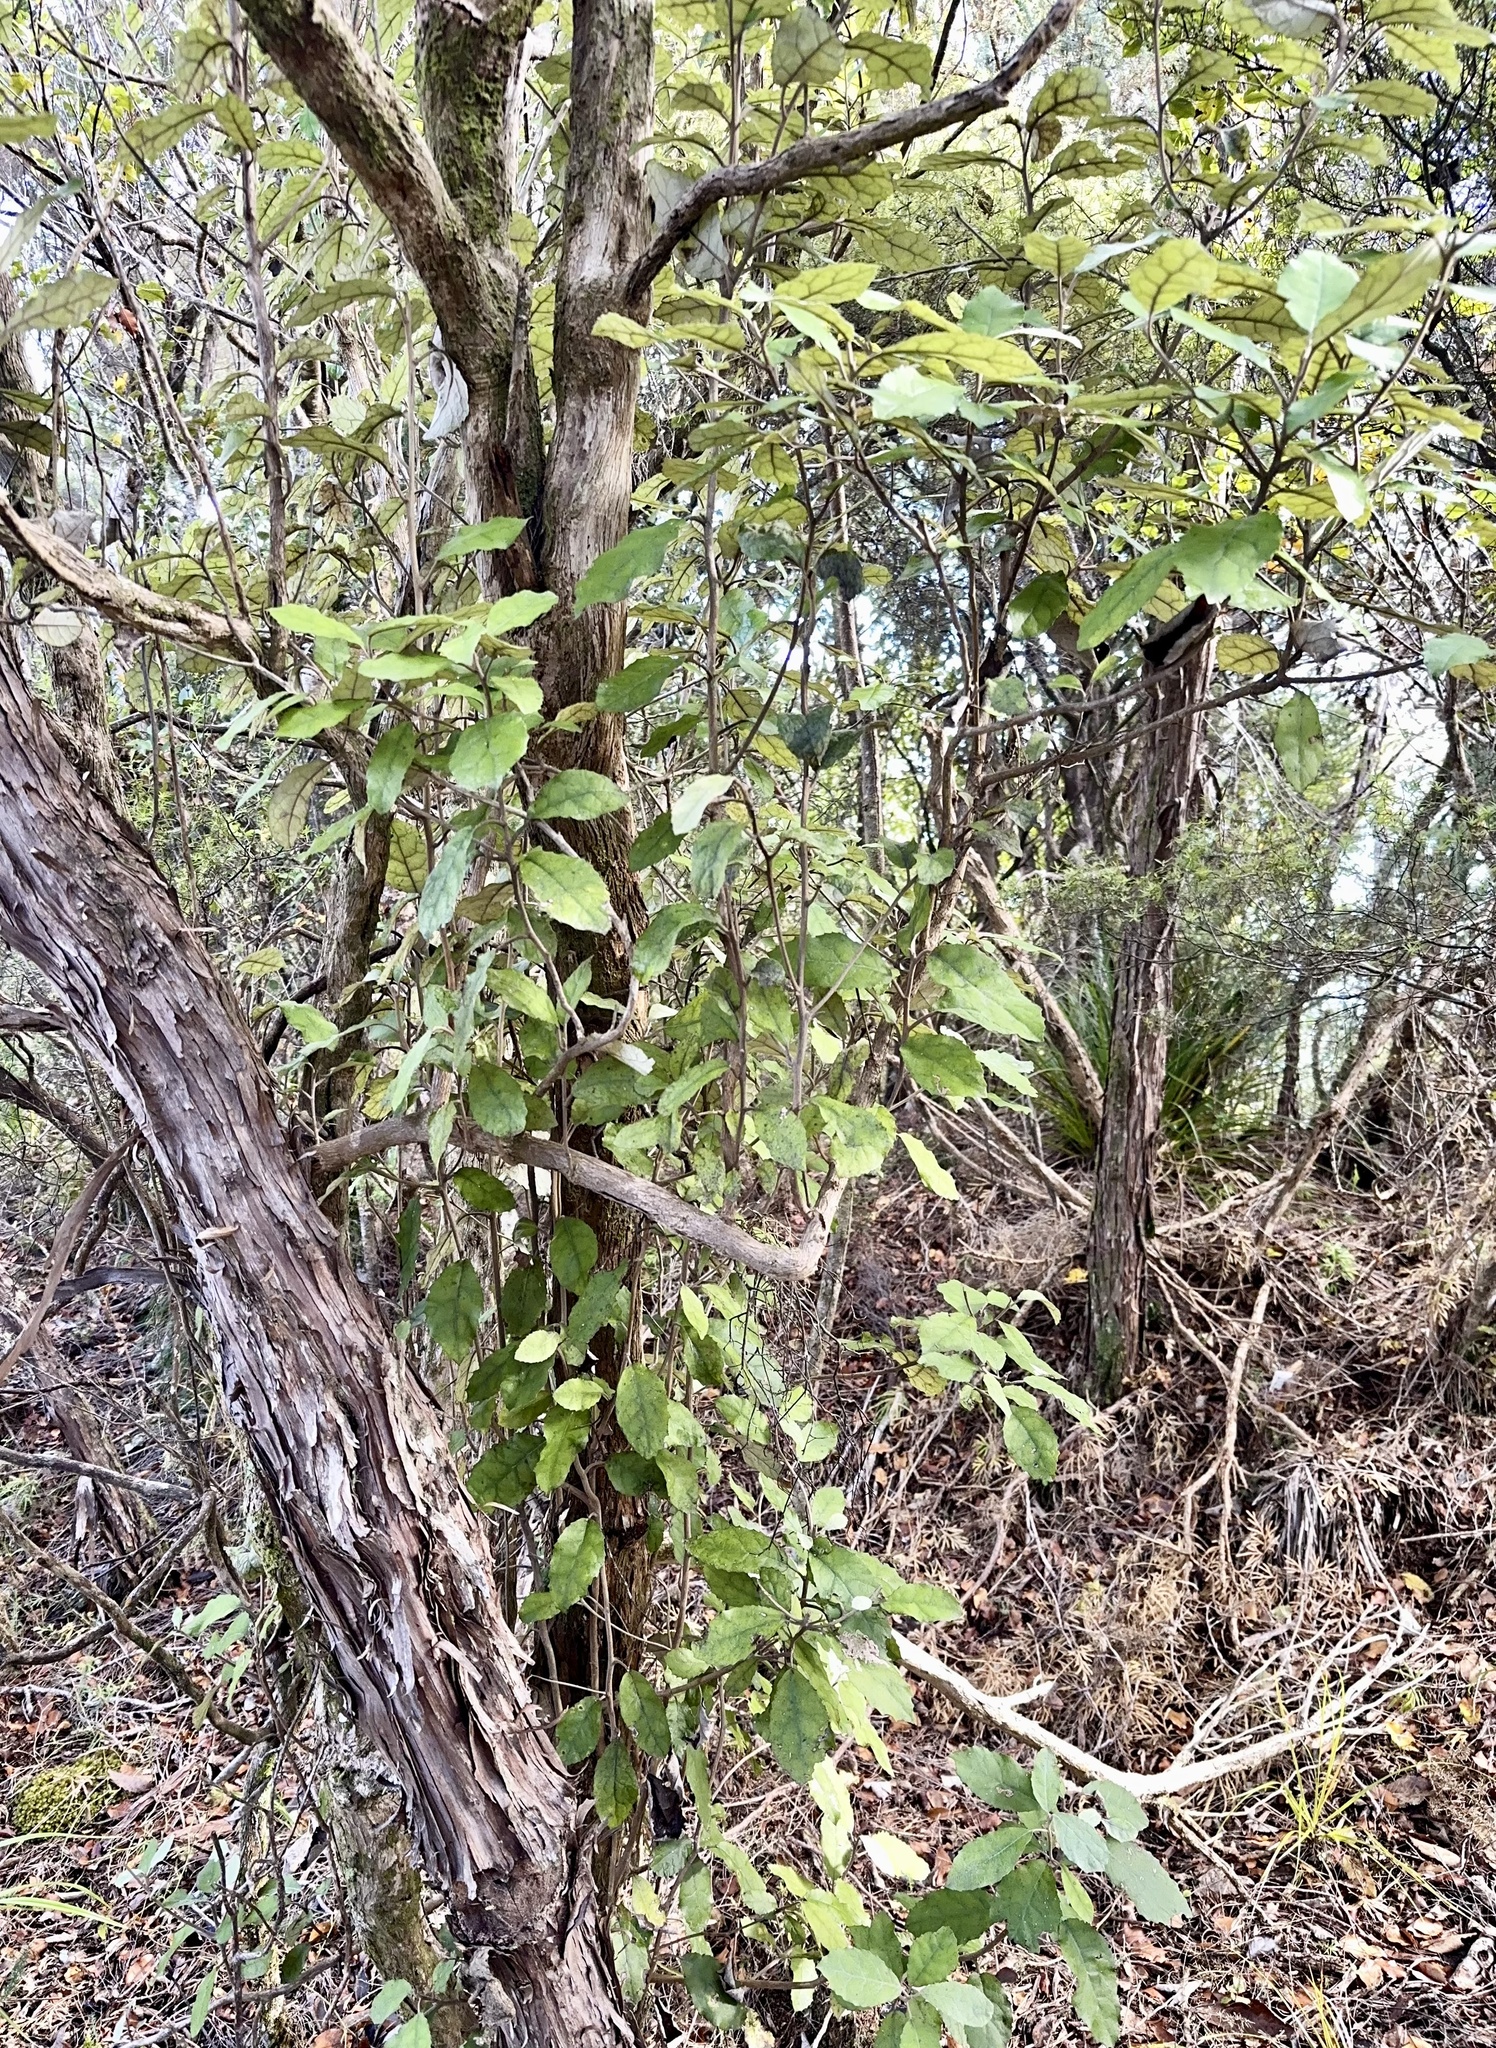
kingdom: Plantae
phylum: Tracheophyta
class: Magnoliopsida
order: Asterales
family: Asteraceae
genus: Olearia
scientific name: Olearia rani
